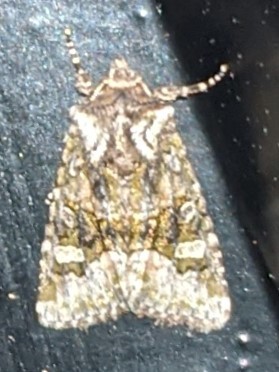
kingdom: Animalia
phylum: Arthropoda
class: Insecta
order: Lepidoptera
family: Noctuidae
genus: Lacinipolia
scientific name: Lacinipolia olivacea
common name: Olive arches moth
